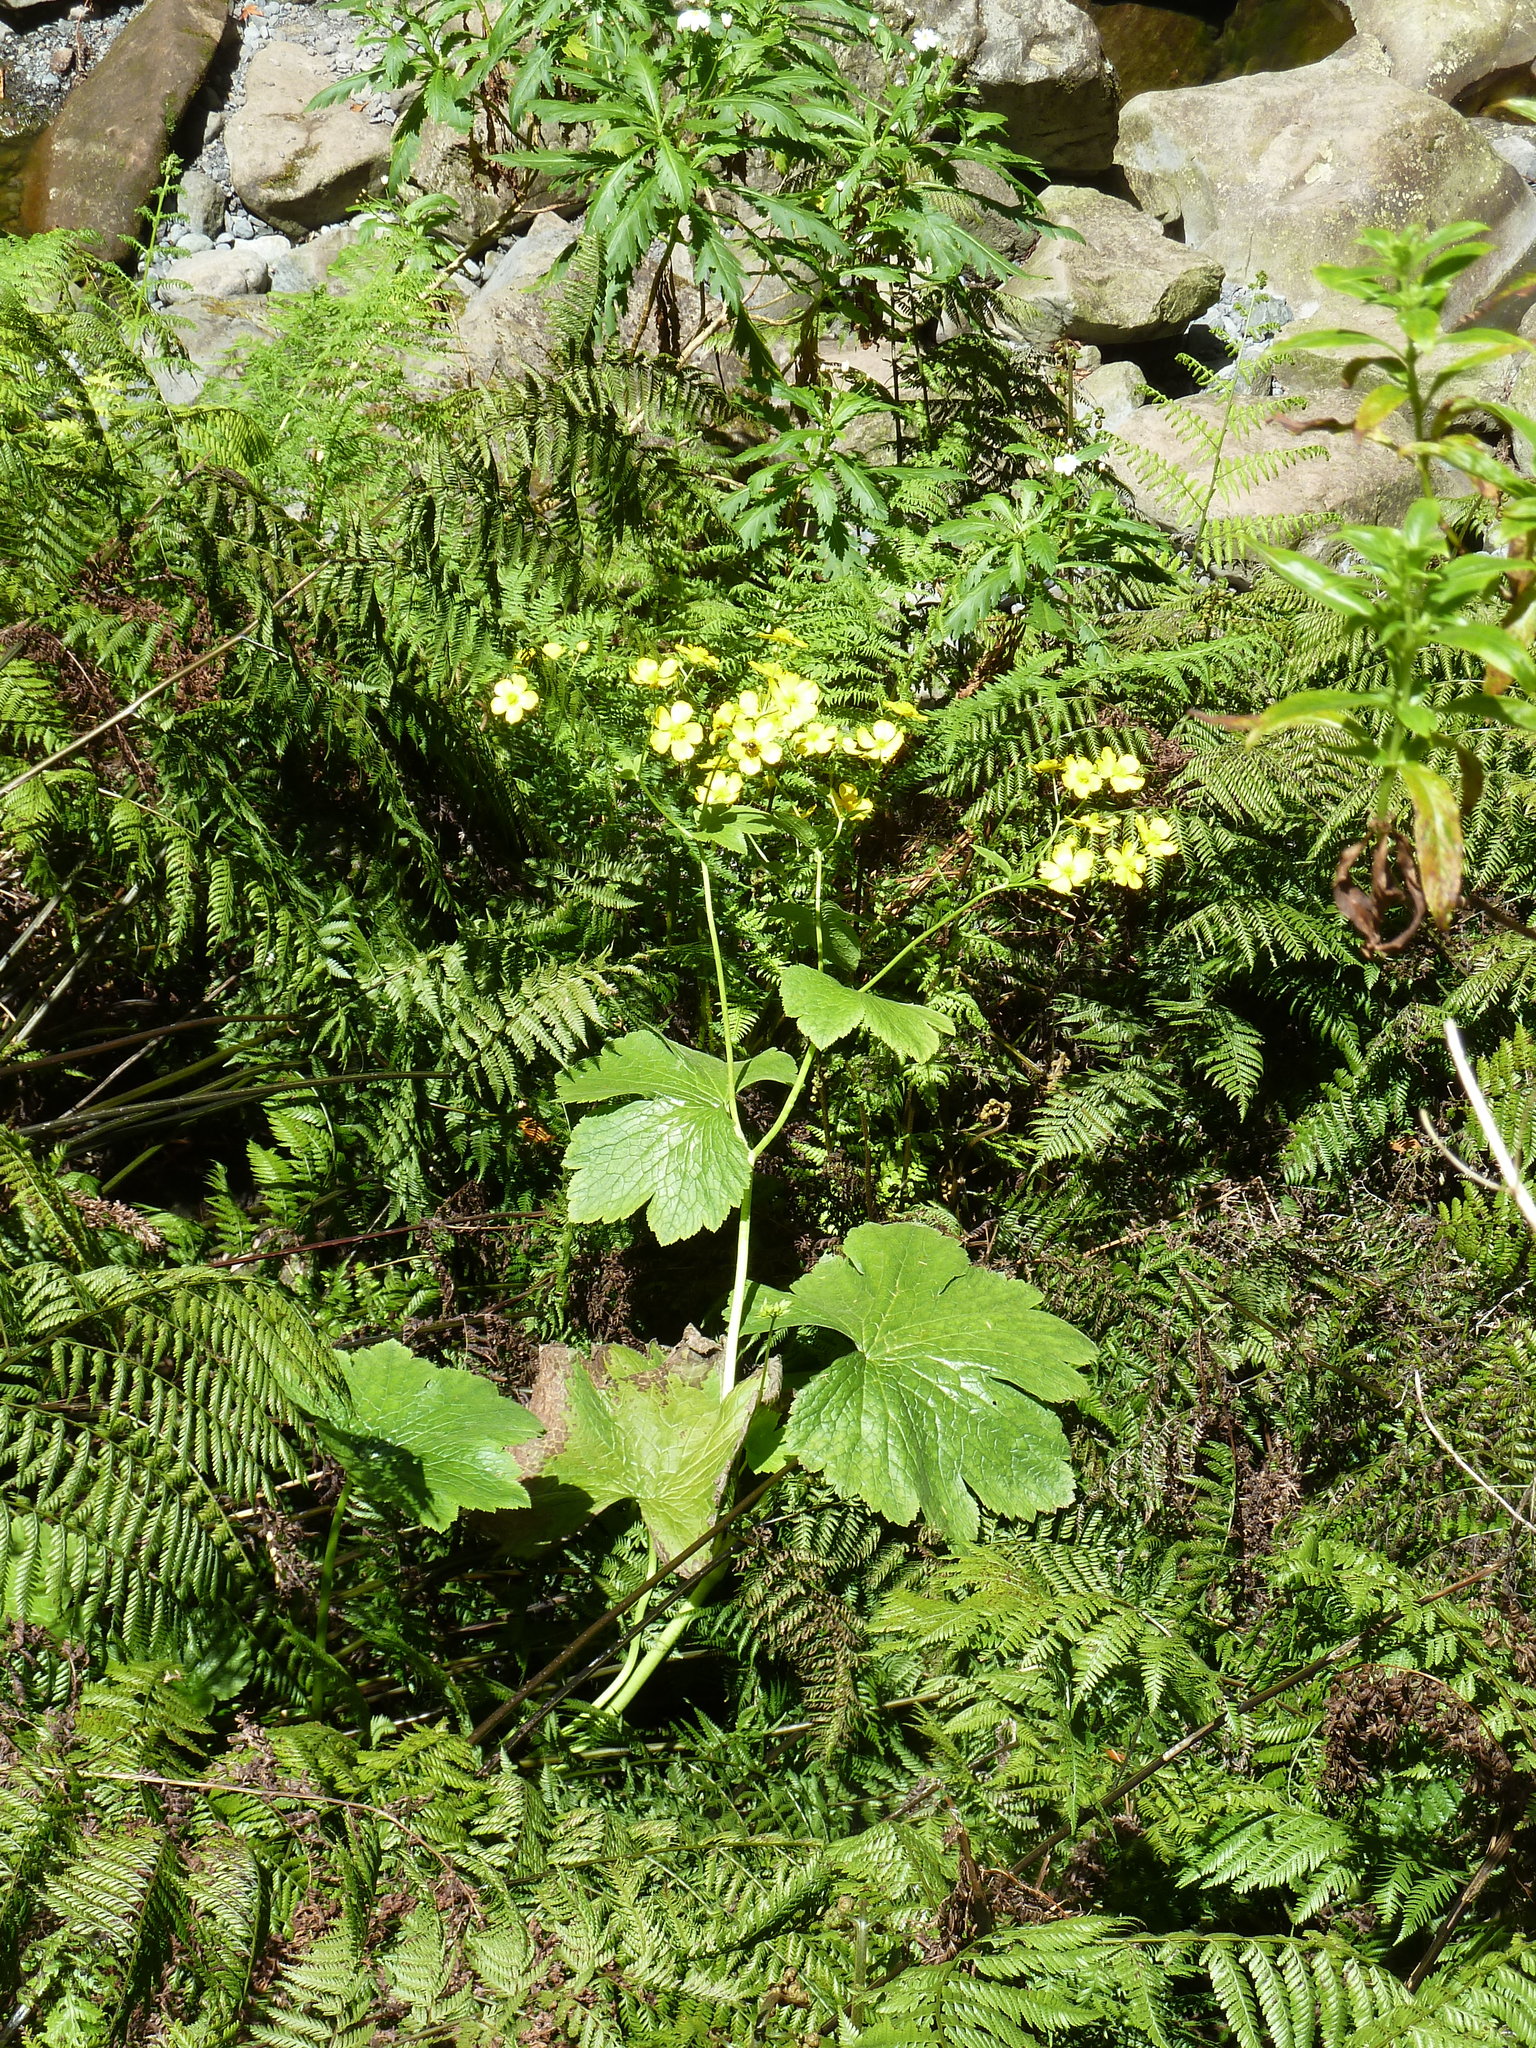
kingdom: Plantae
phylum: Tracheophyta
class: Magnoliopsida
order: Ranunculales
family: Ranunculaceae
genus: Ranunculus
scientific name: Ranunculus cortusifolius
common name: Azores buttercup
